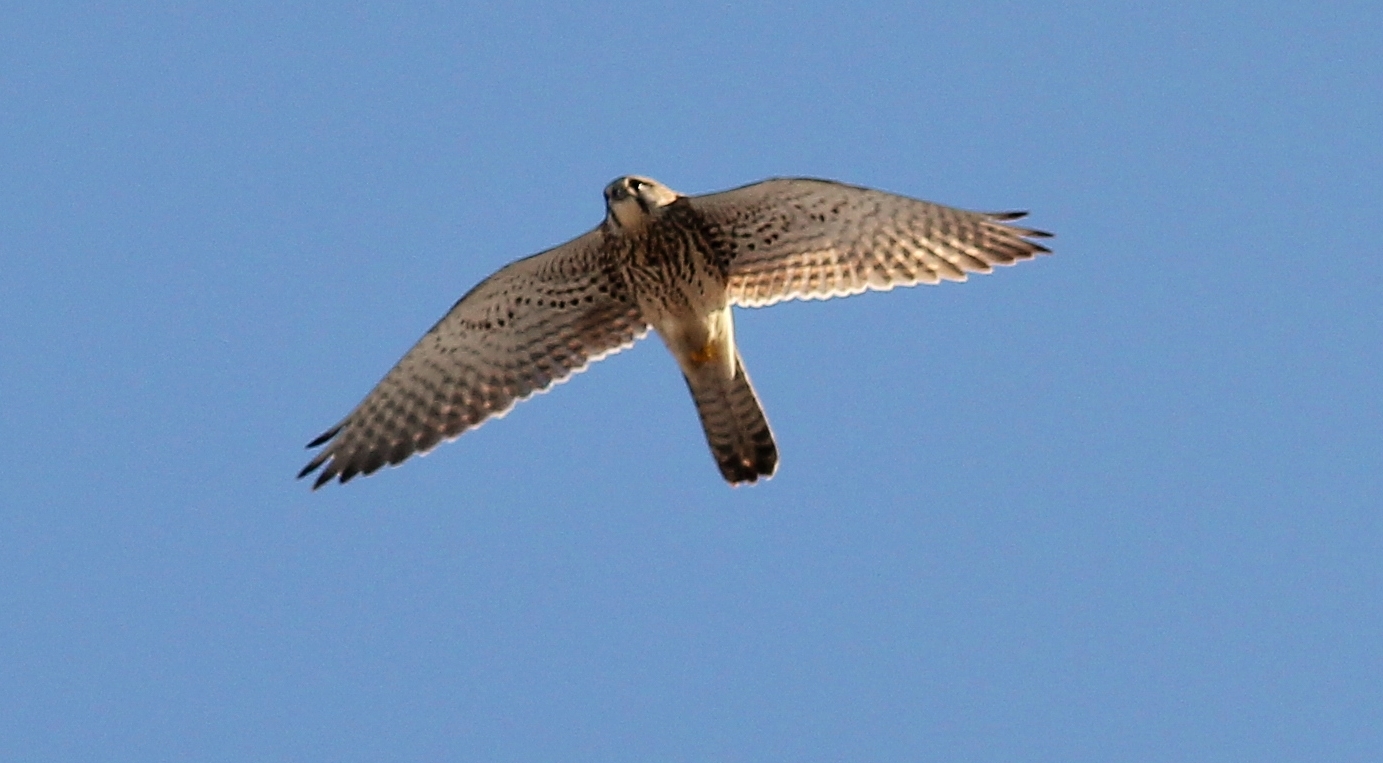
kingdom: Animalia
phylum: Chordata
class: Aves
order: Falconiformes
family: Falconidae
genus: Falco
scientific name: Falco tinnunculus
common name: Common kestrel
